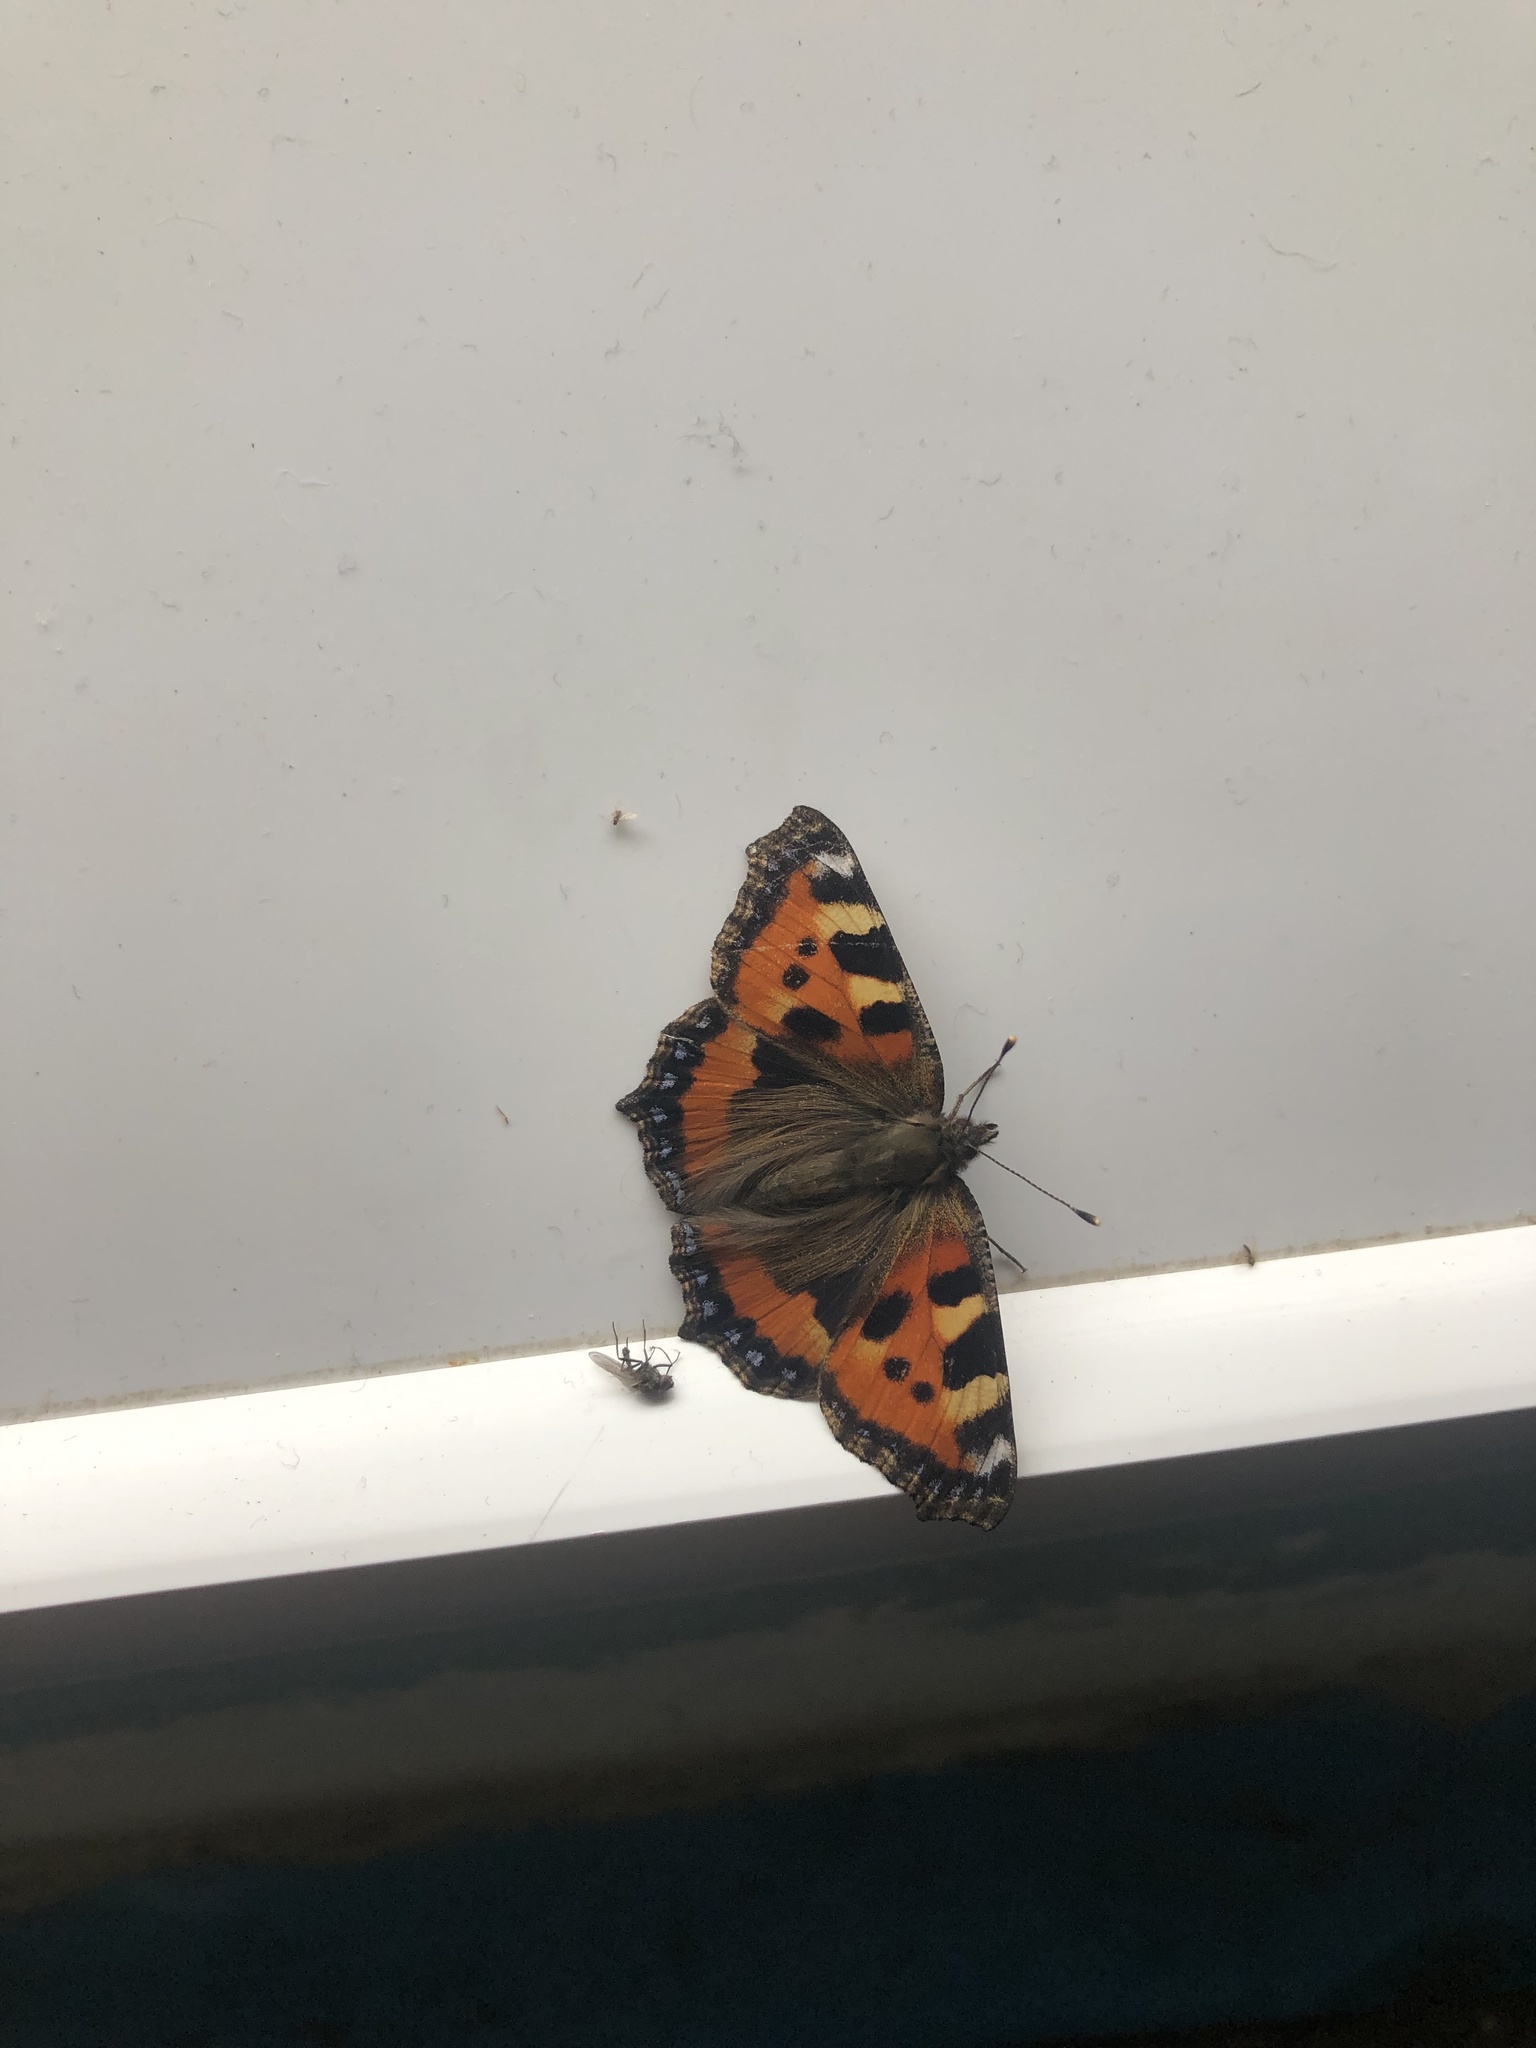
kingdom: Animalia
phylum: Arthropoda
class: Insecta
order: Lepidoptera
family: Nymphalidae
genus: Aglais
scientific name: Aglais urticae
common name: Small tortoiseshell
